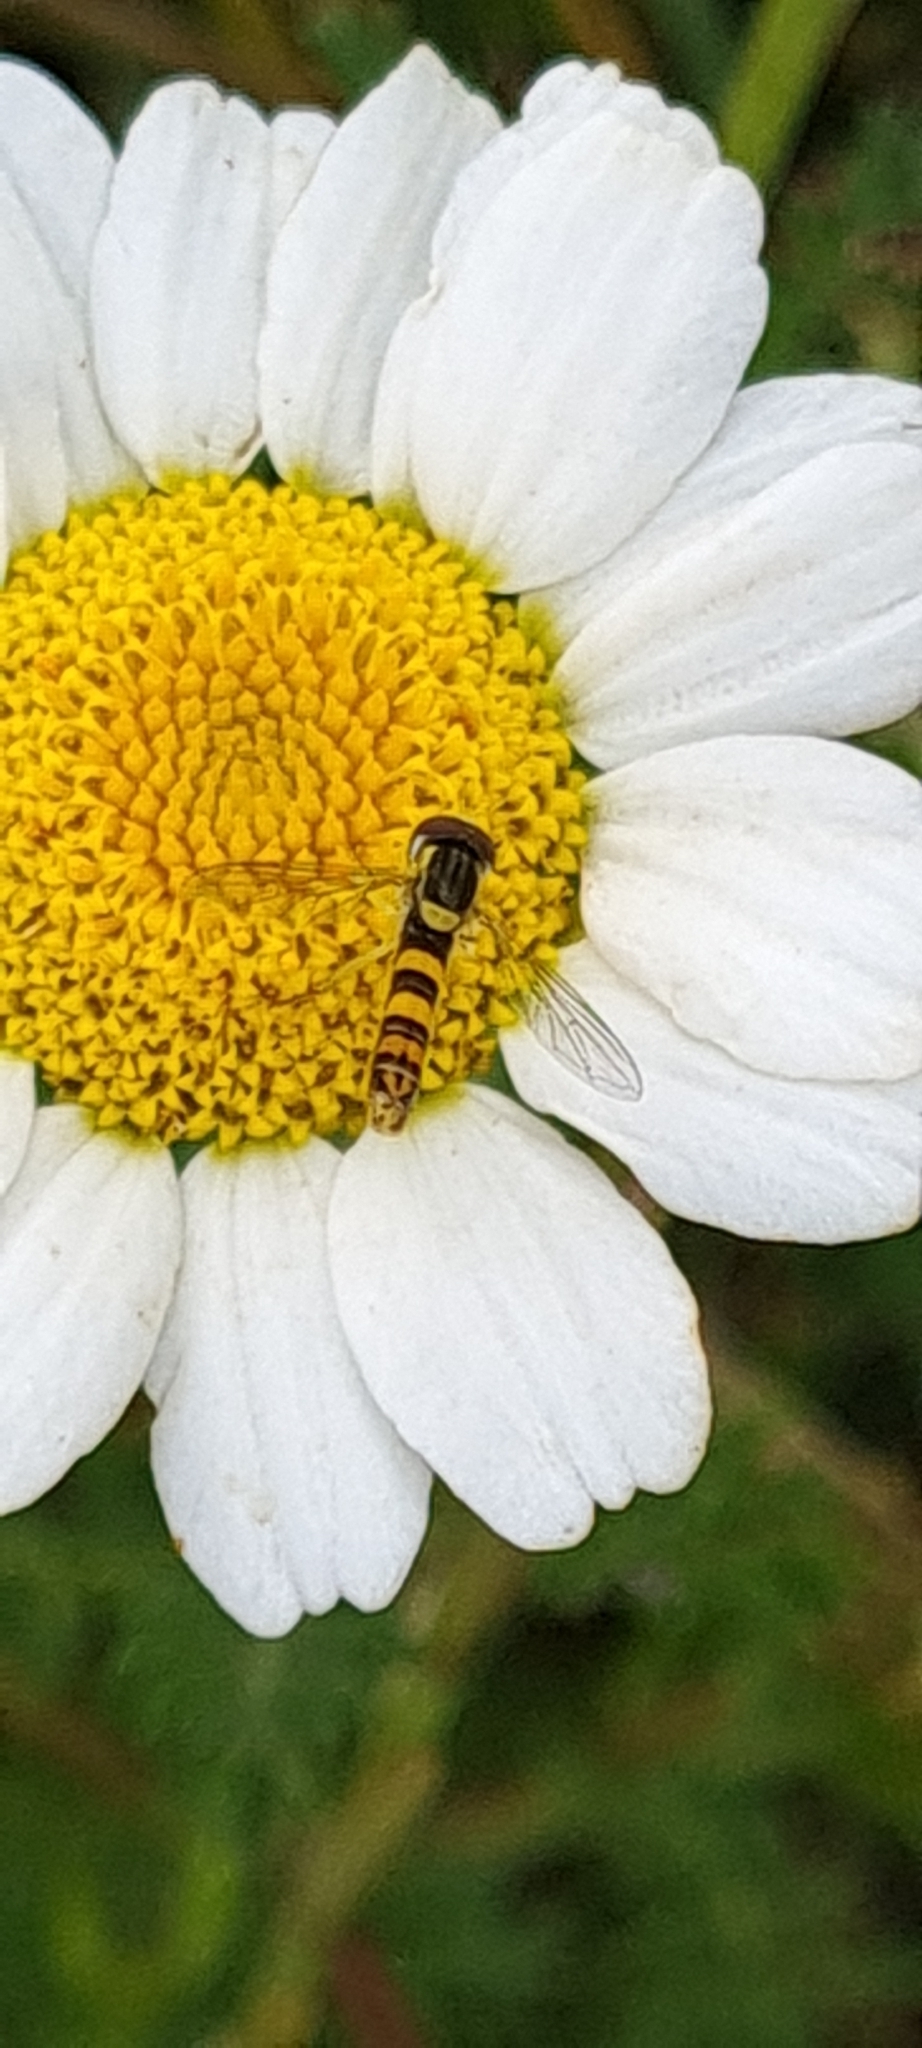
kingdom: Animalia
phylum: Arthropoda
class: Insecta
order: Diptera
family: Syrphidae
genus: Sphaerophoria
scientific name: Sphaerophoria scripta
